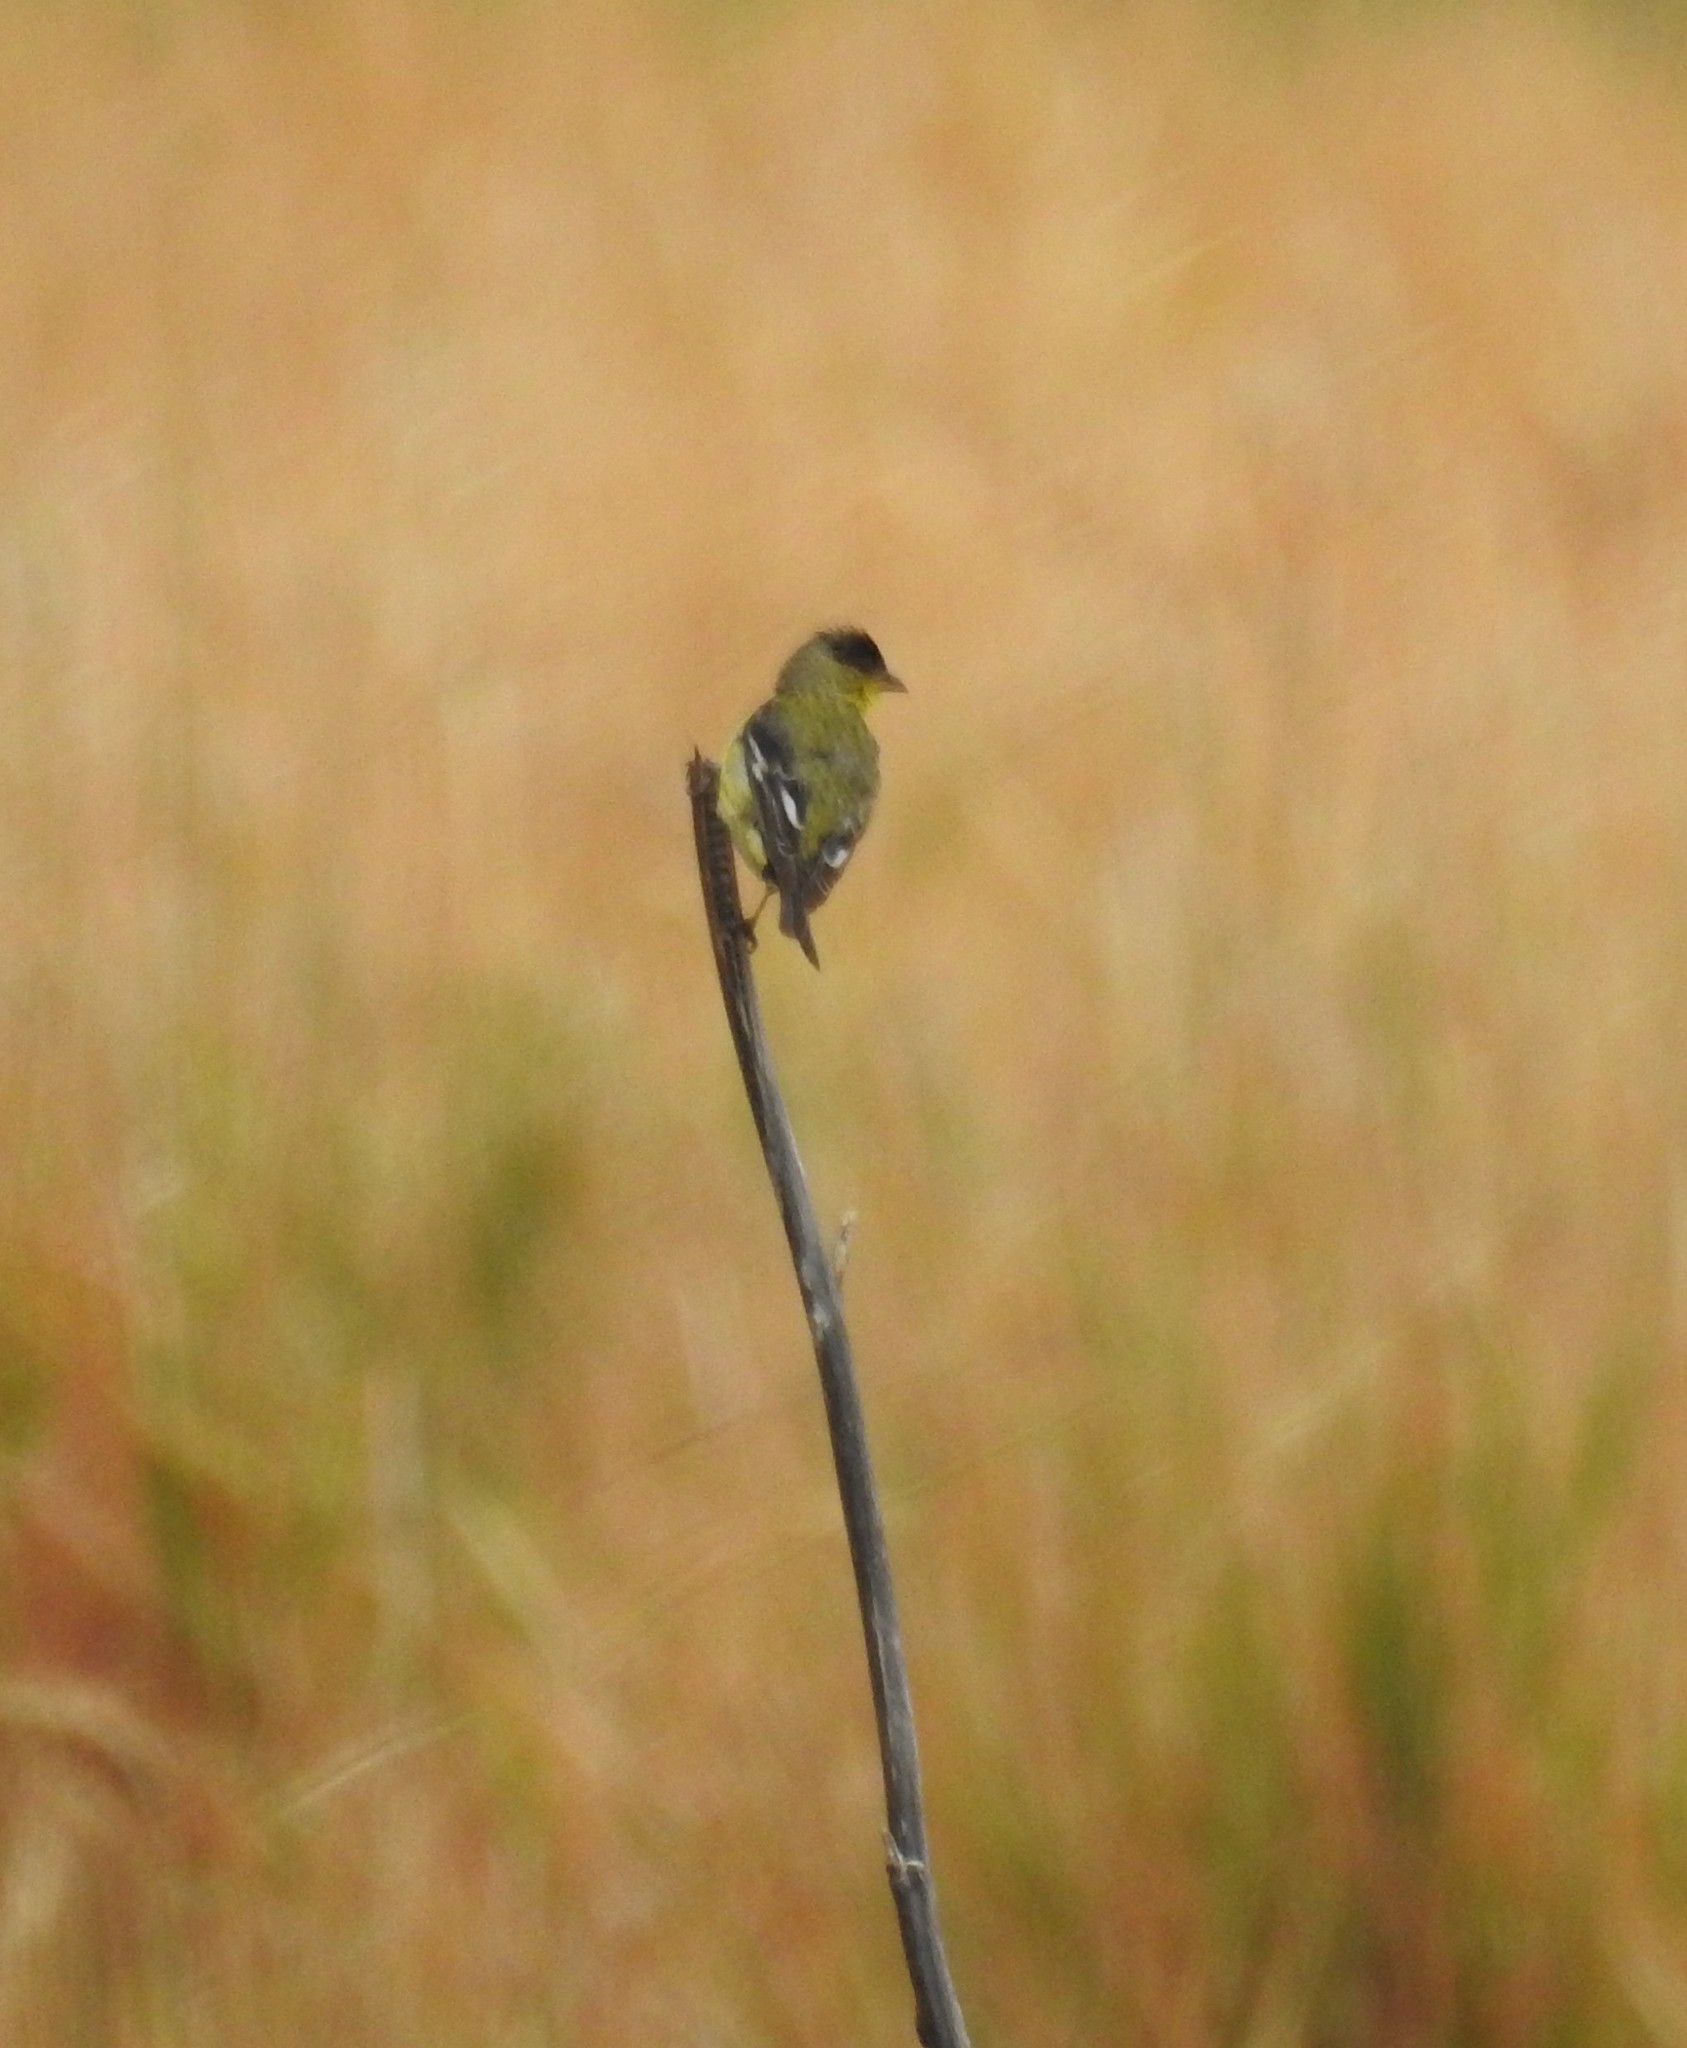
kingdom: Animalia
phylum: Chordata
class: Aves
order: Passeriformes
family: Fringillidae
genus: Spinus
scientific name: Spinus psaltria
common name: Lesser goldfinch
